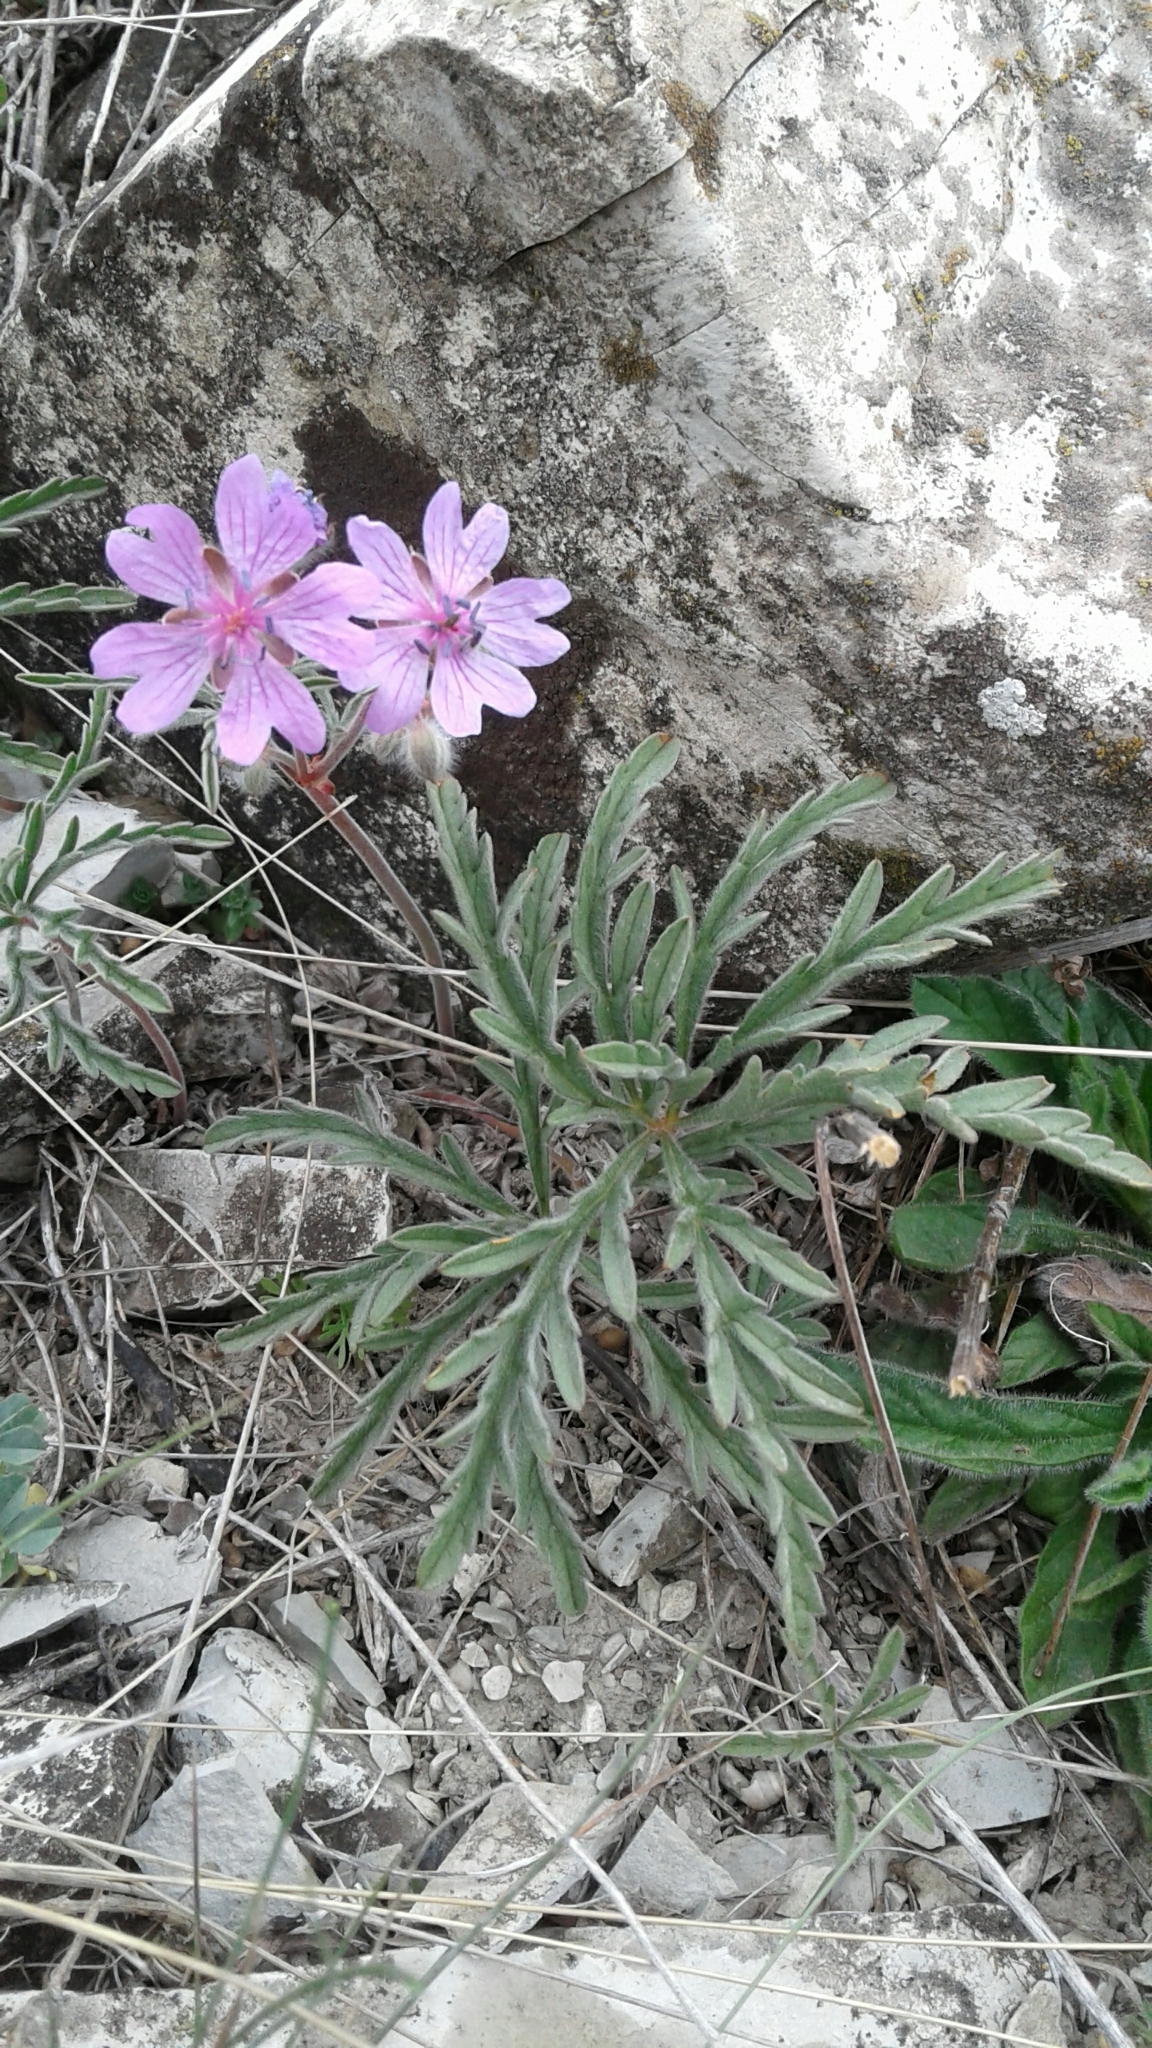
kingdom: Plantae
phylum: Tracheophyta
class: Magnoliopsida
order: Geraniales
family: Geraniaceae
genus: Geranium
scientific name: Geranium tuberosum
